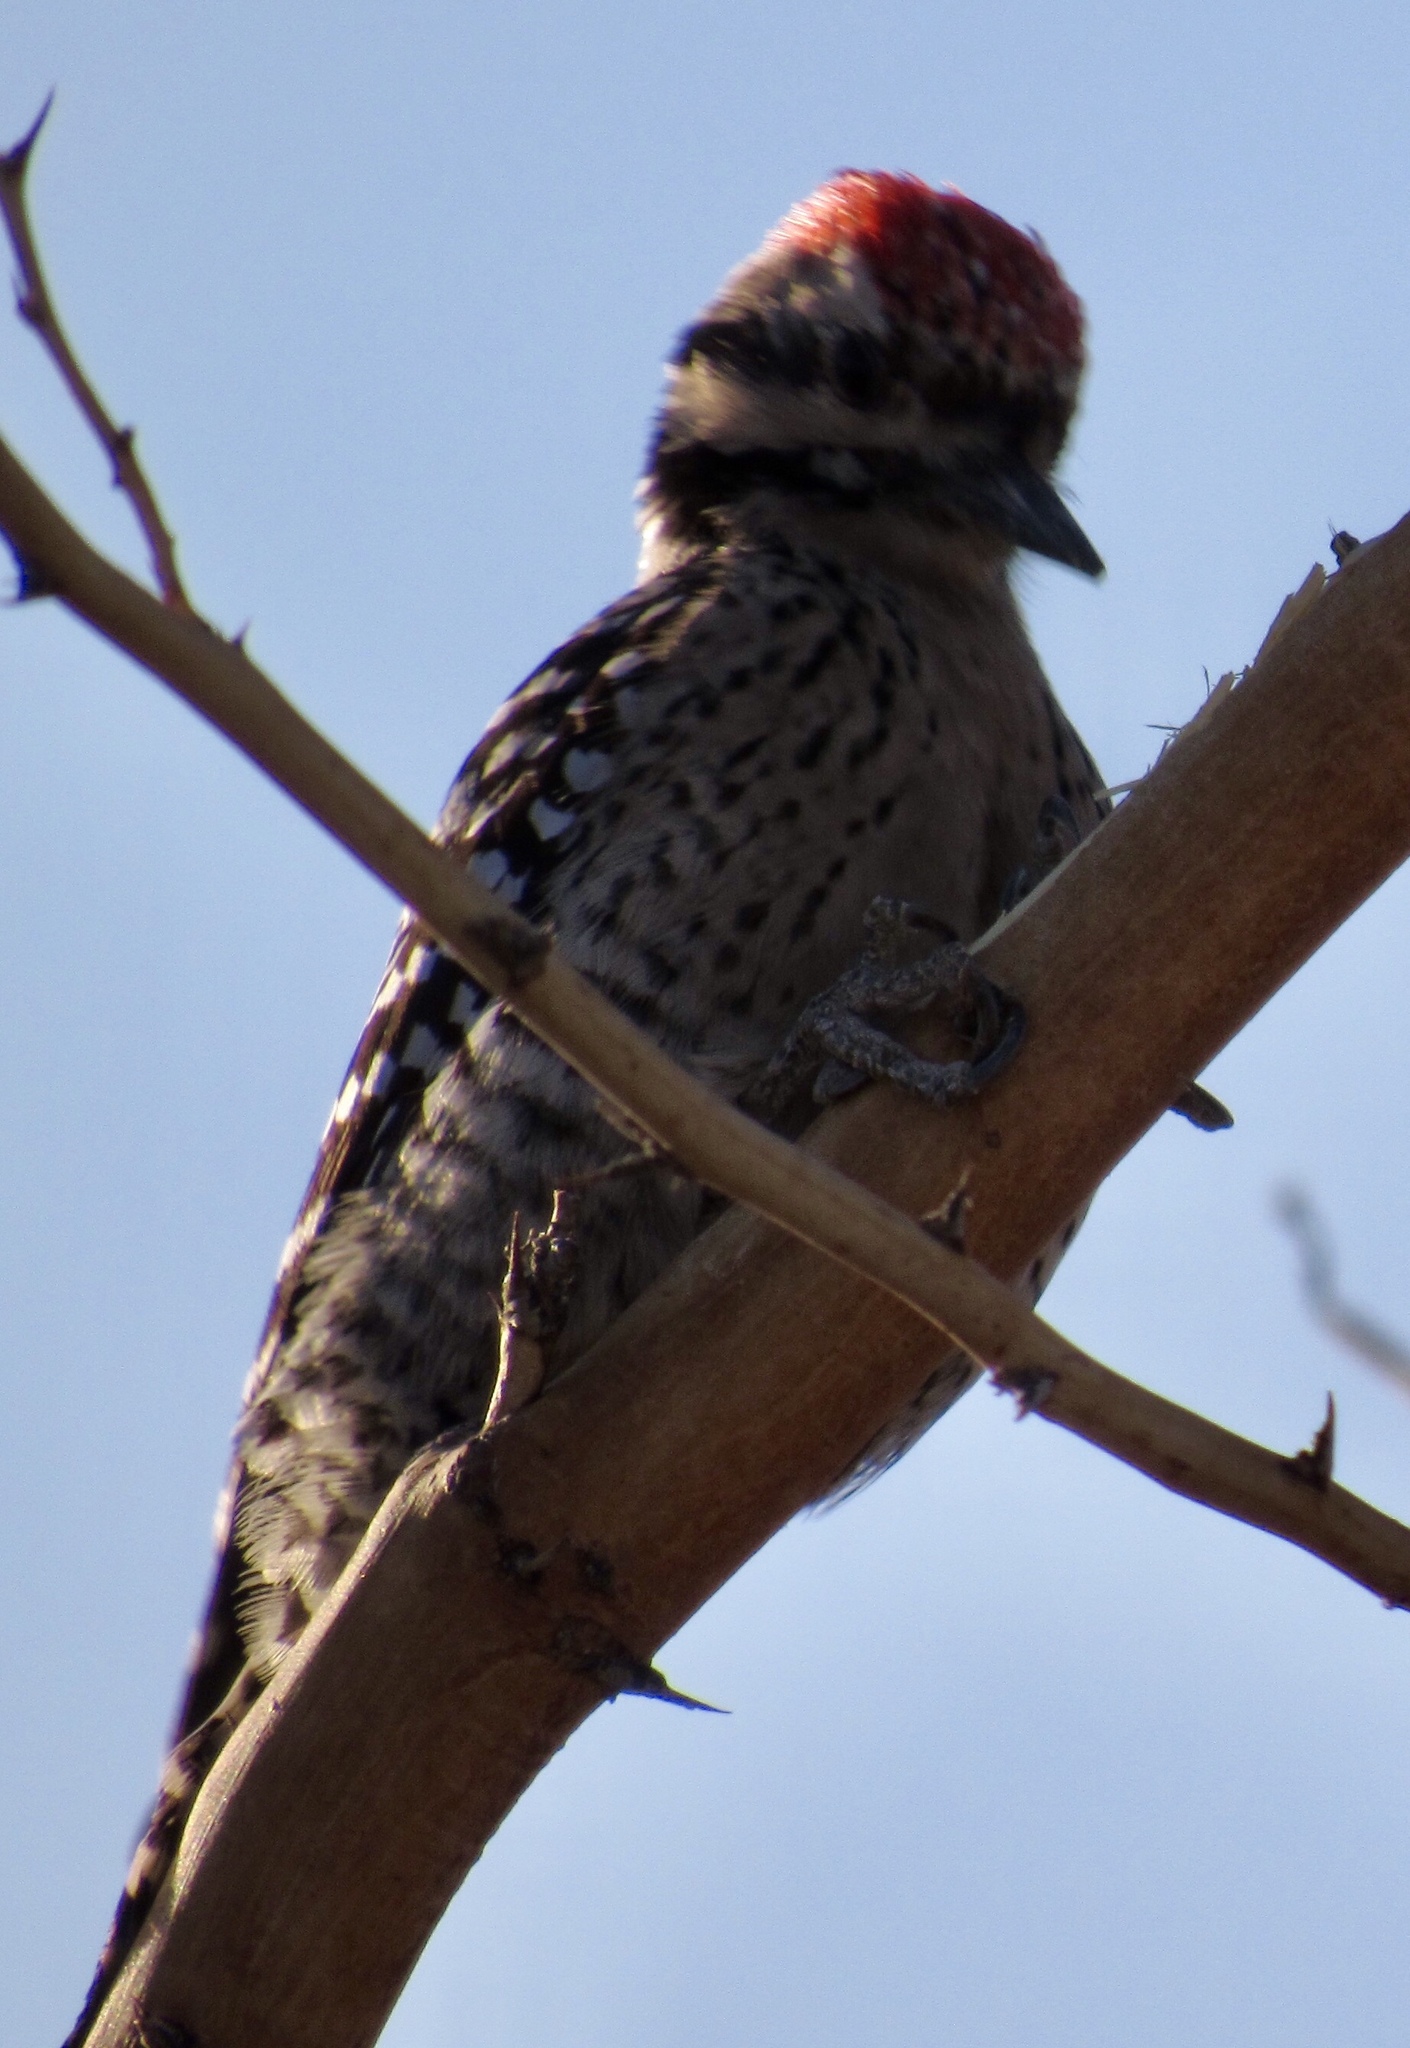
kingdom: Animalia
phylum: Chordata
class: Aves
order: Piciformes
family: Picidae
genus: Dryobates
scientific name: Dryobates scalaris
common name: Ladder-backed woodpecker
